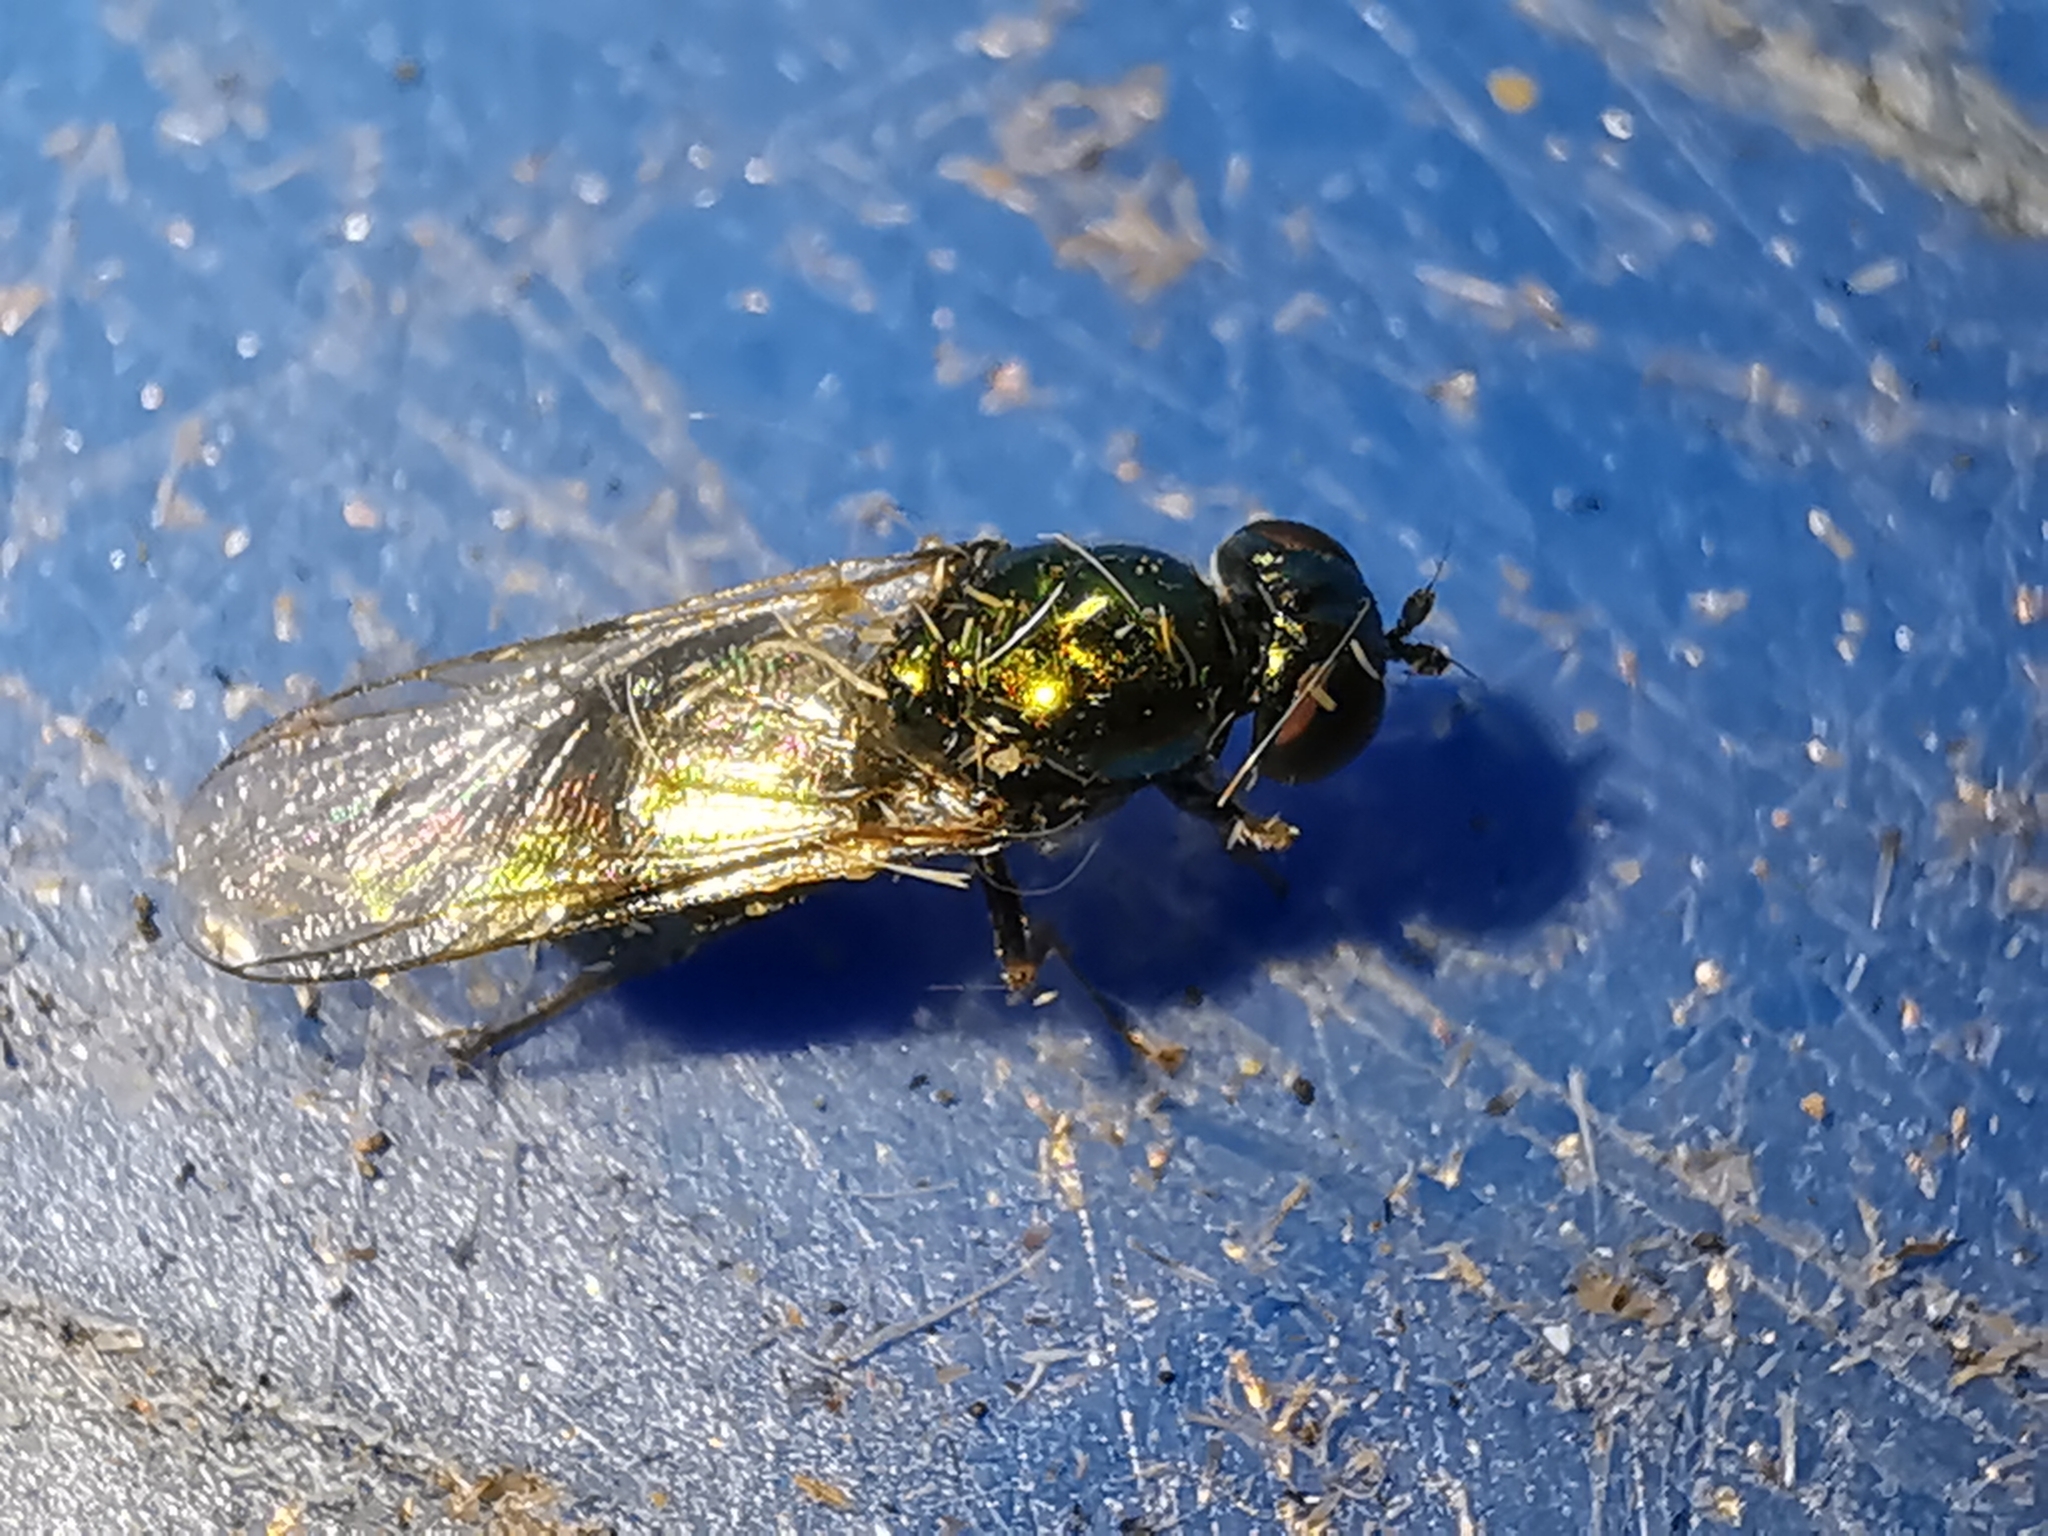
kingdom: Animalia
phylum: Arthropoda
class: Insecta
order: Diptera
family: Stratiomyidae
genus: Microchrysa
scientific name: Microchrysa polita
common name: Black-horned gem
